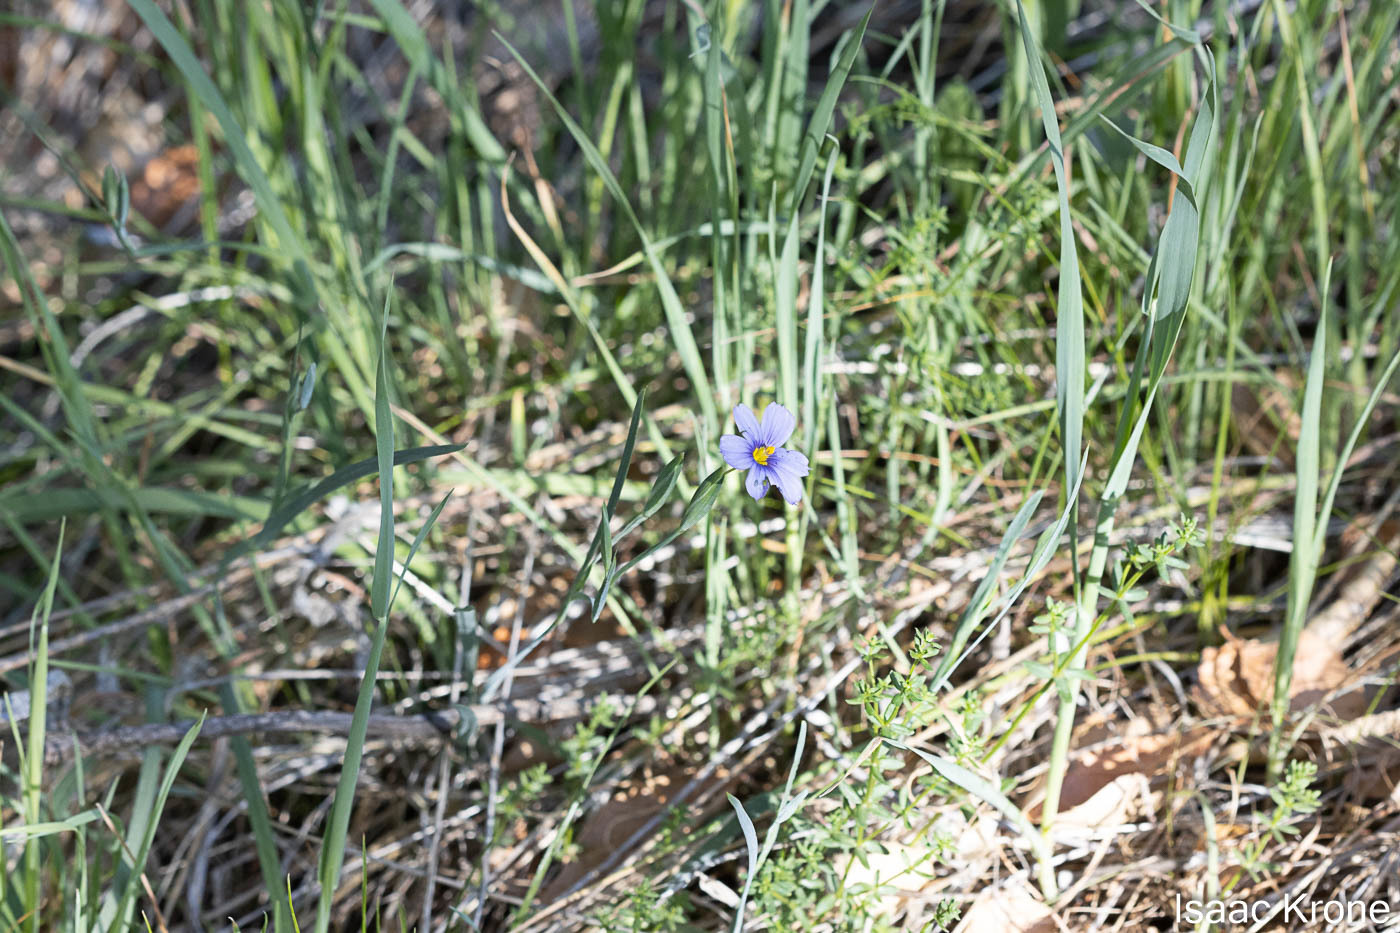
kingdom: Plantae
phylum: Tracheophyta
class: Liliopsida
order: Asparagales
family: Iridaceae
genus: Sisyrinchium
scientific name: Sisyrinchium bellum
